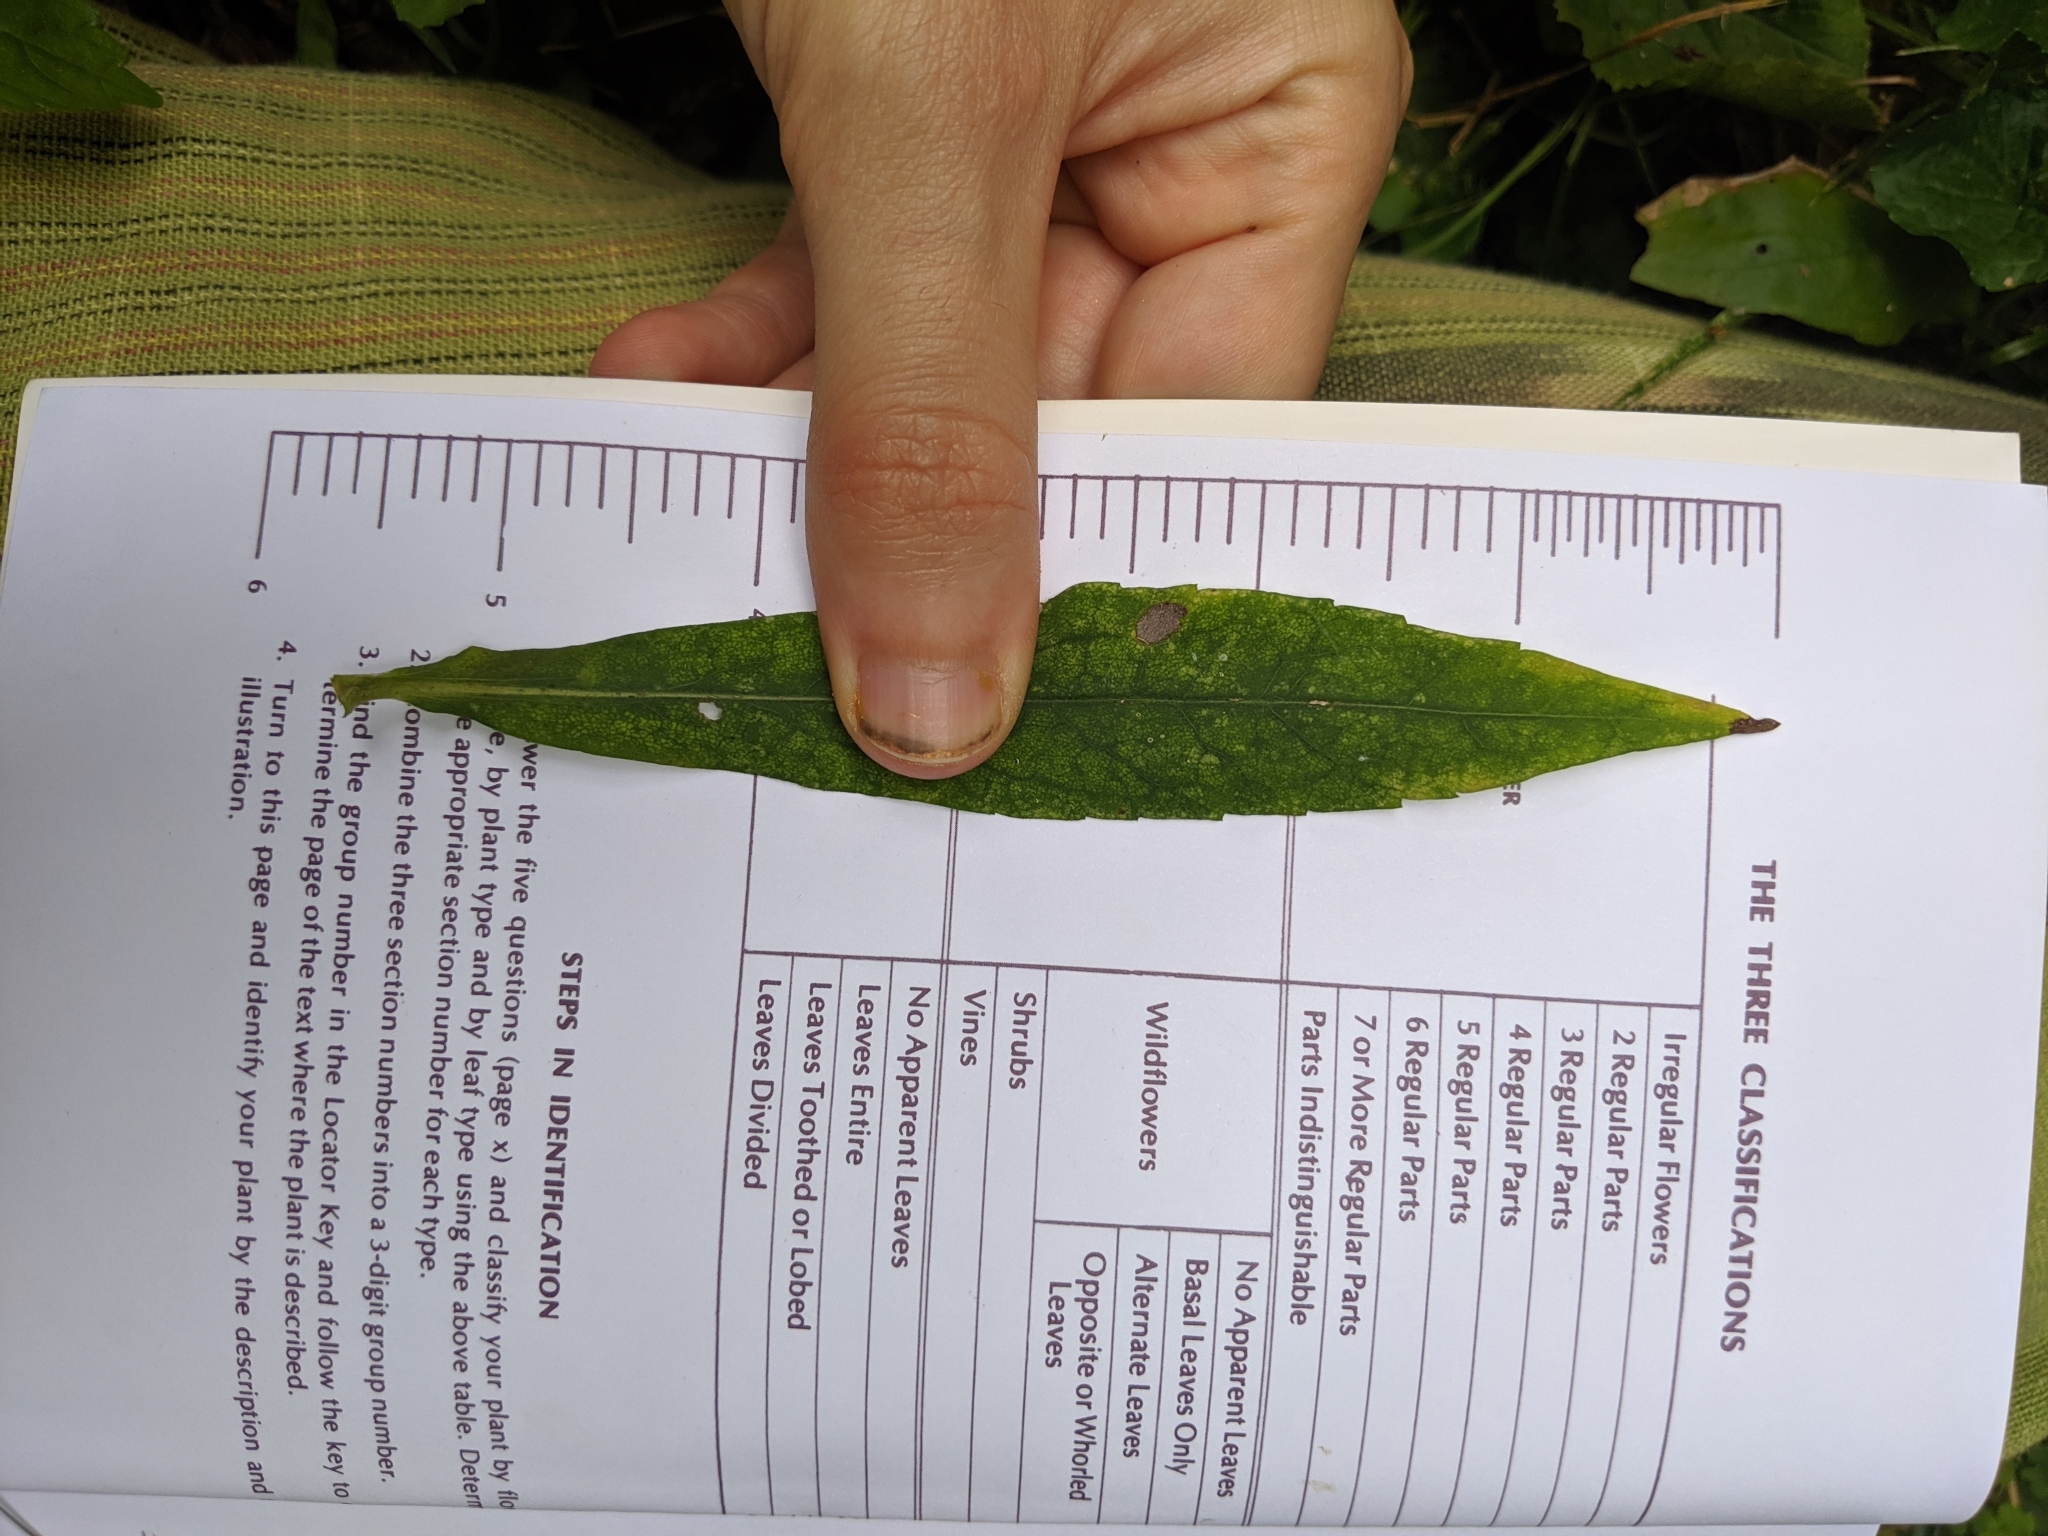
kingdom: Plantae
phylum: Tracheophyta
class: Magnoliopsida
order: Asterales
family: Asteraceae
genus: Symphyotrichum
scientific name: Symphyotrichum lateriflorum
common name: Calico aster
